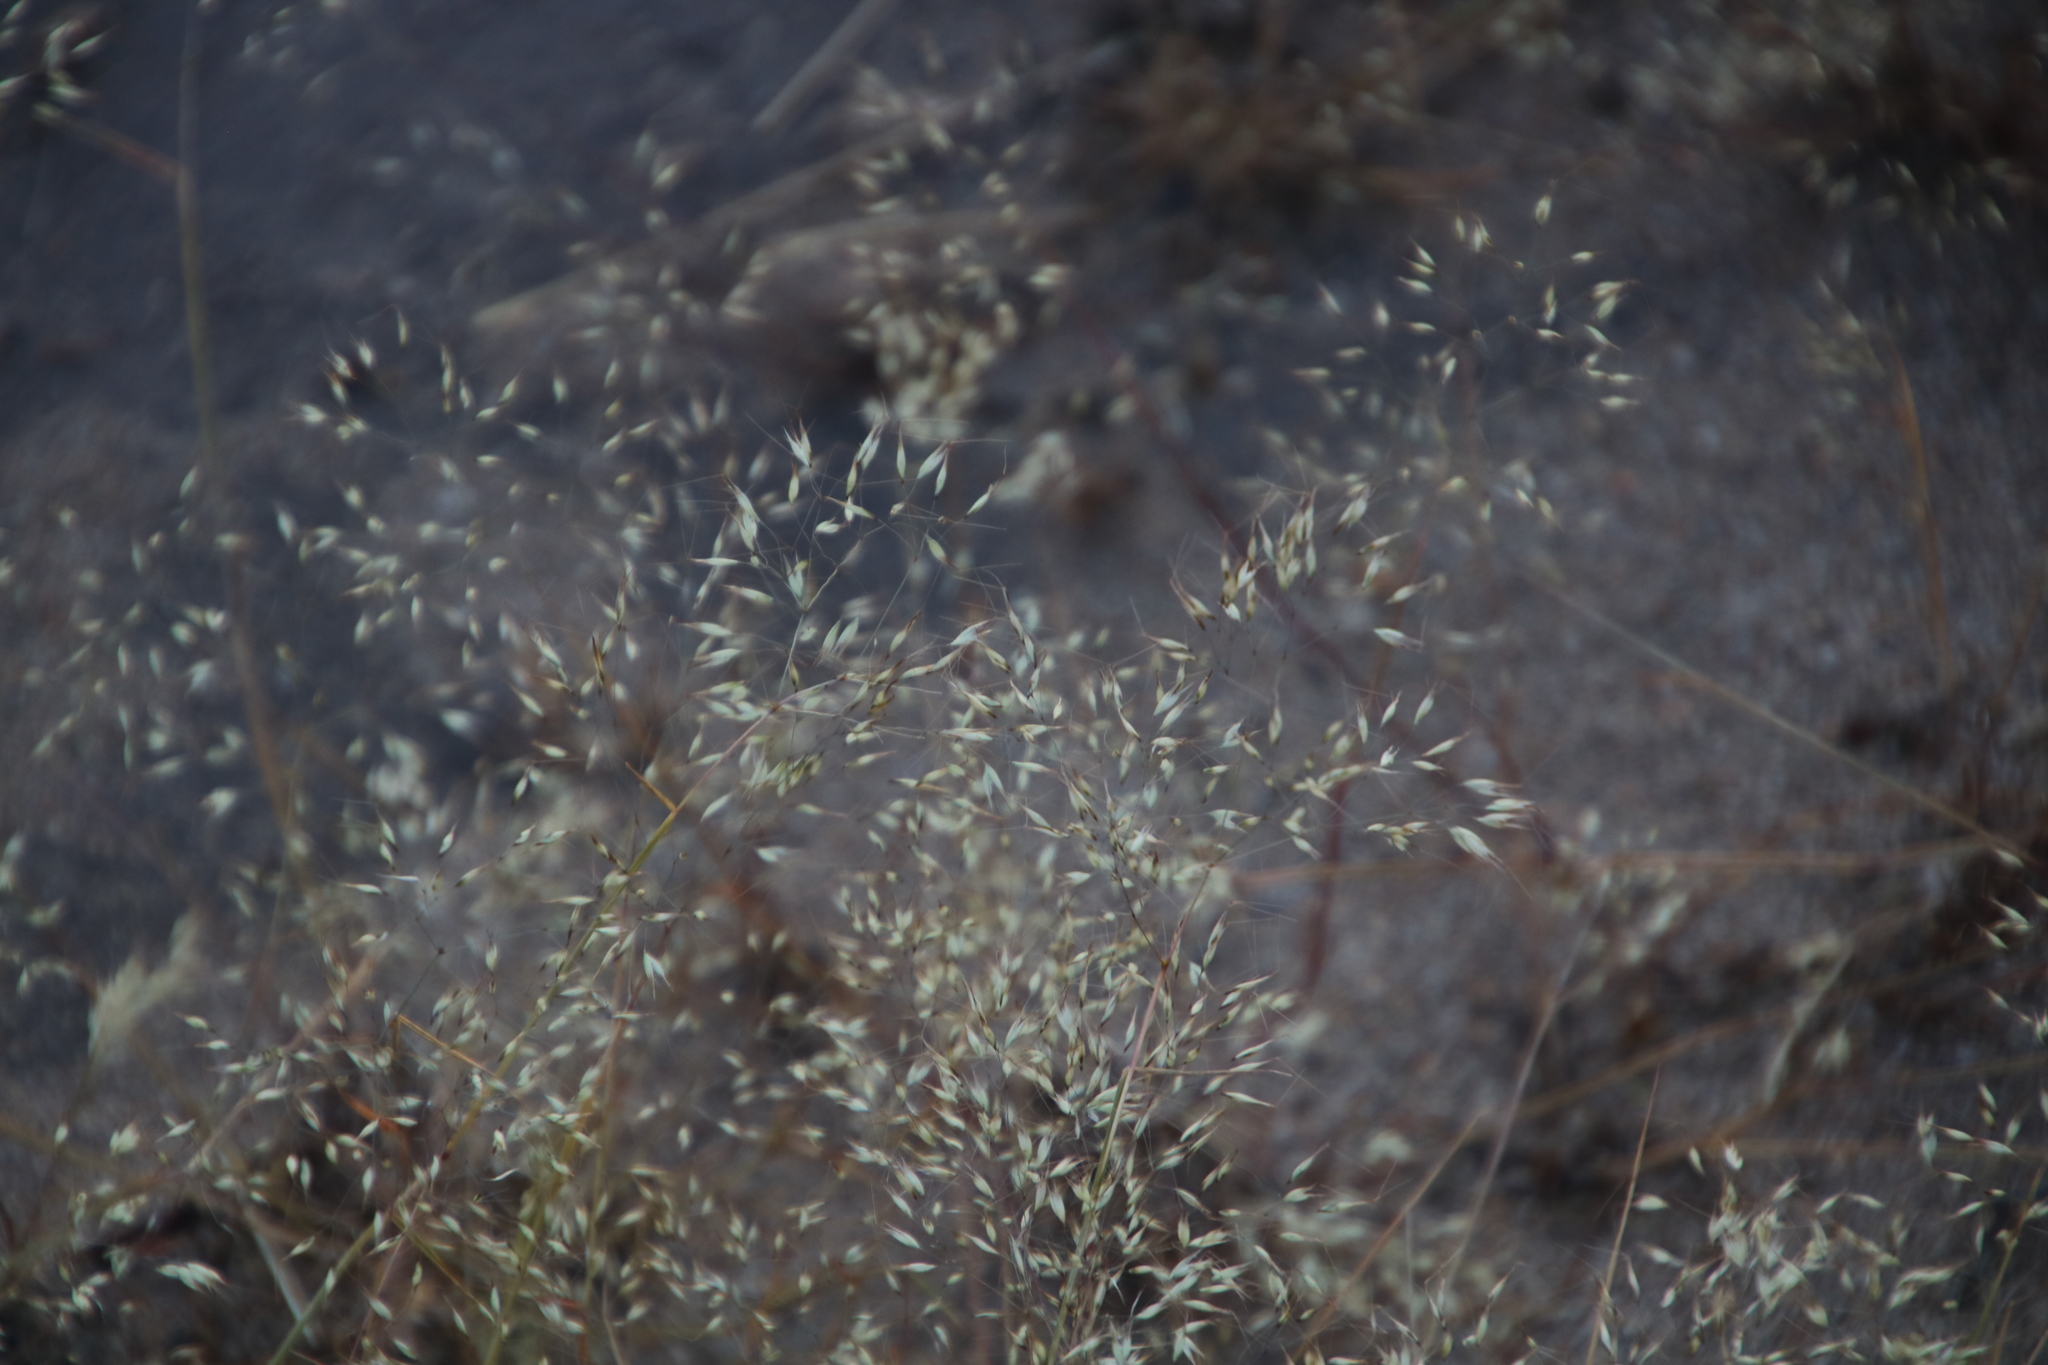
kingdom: Plantae
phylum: Tracheophyta
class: Liliopsida
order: Poales
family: Poaceae
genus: Pentameris
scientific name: Pentameris airoides
